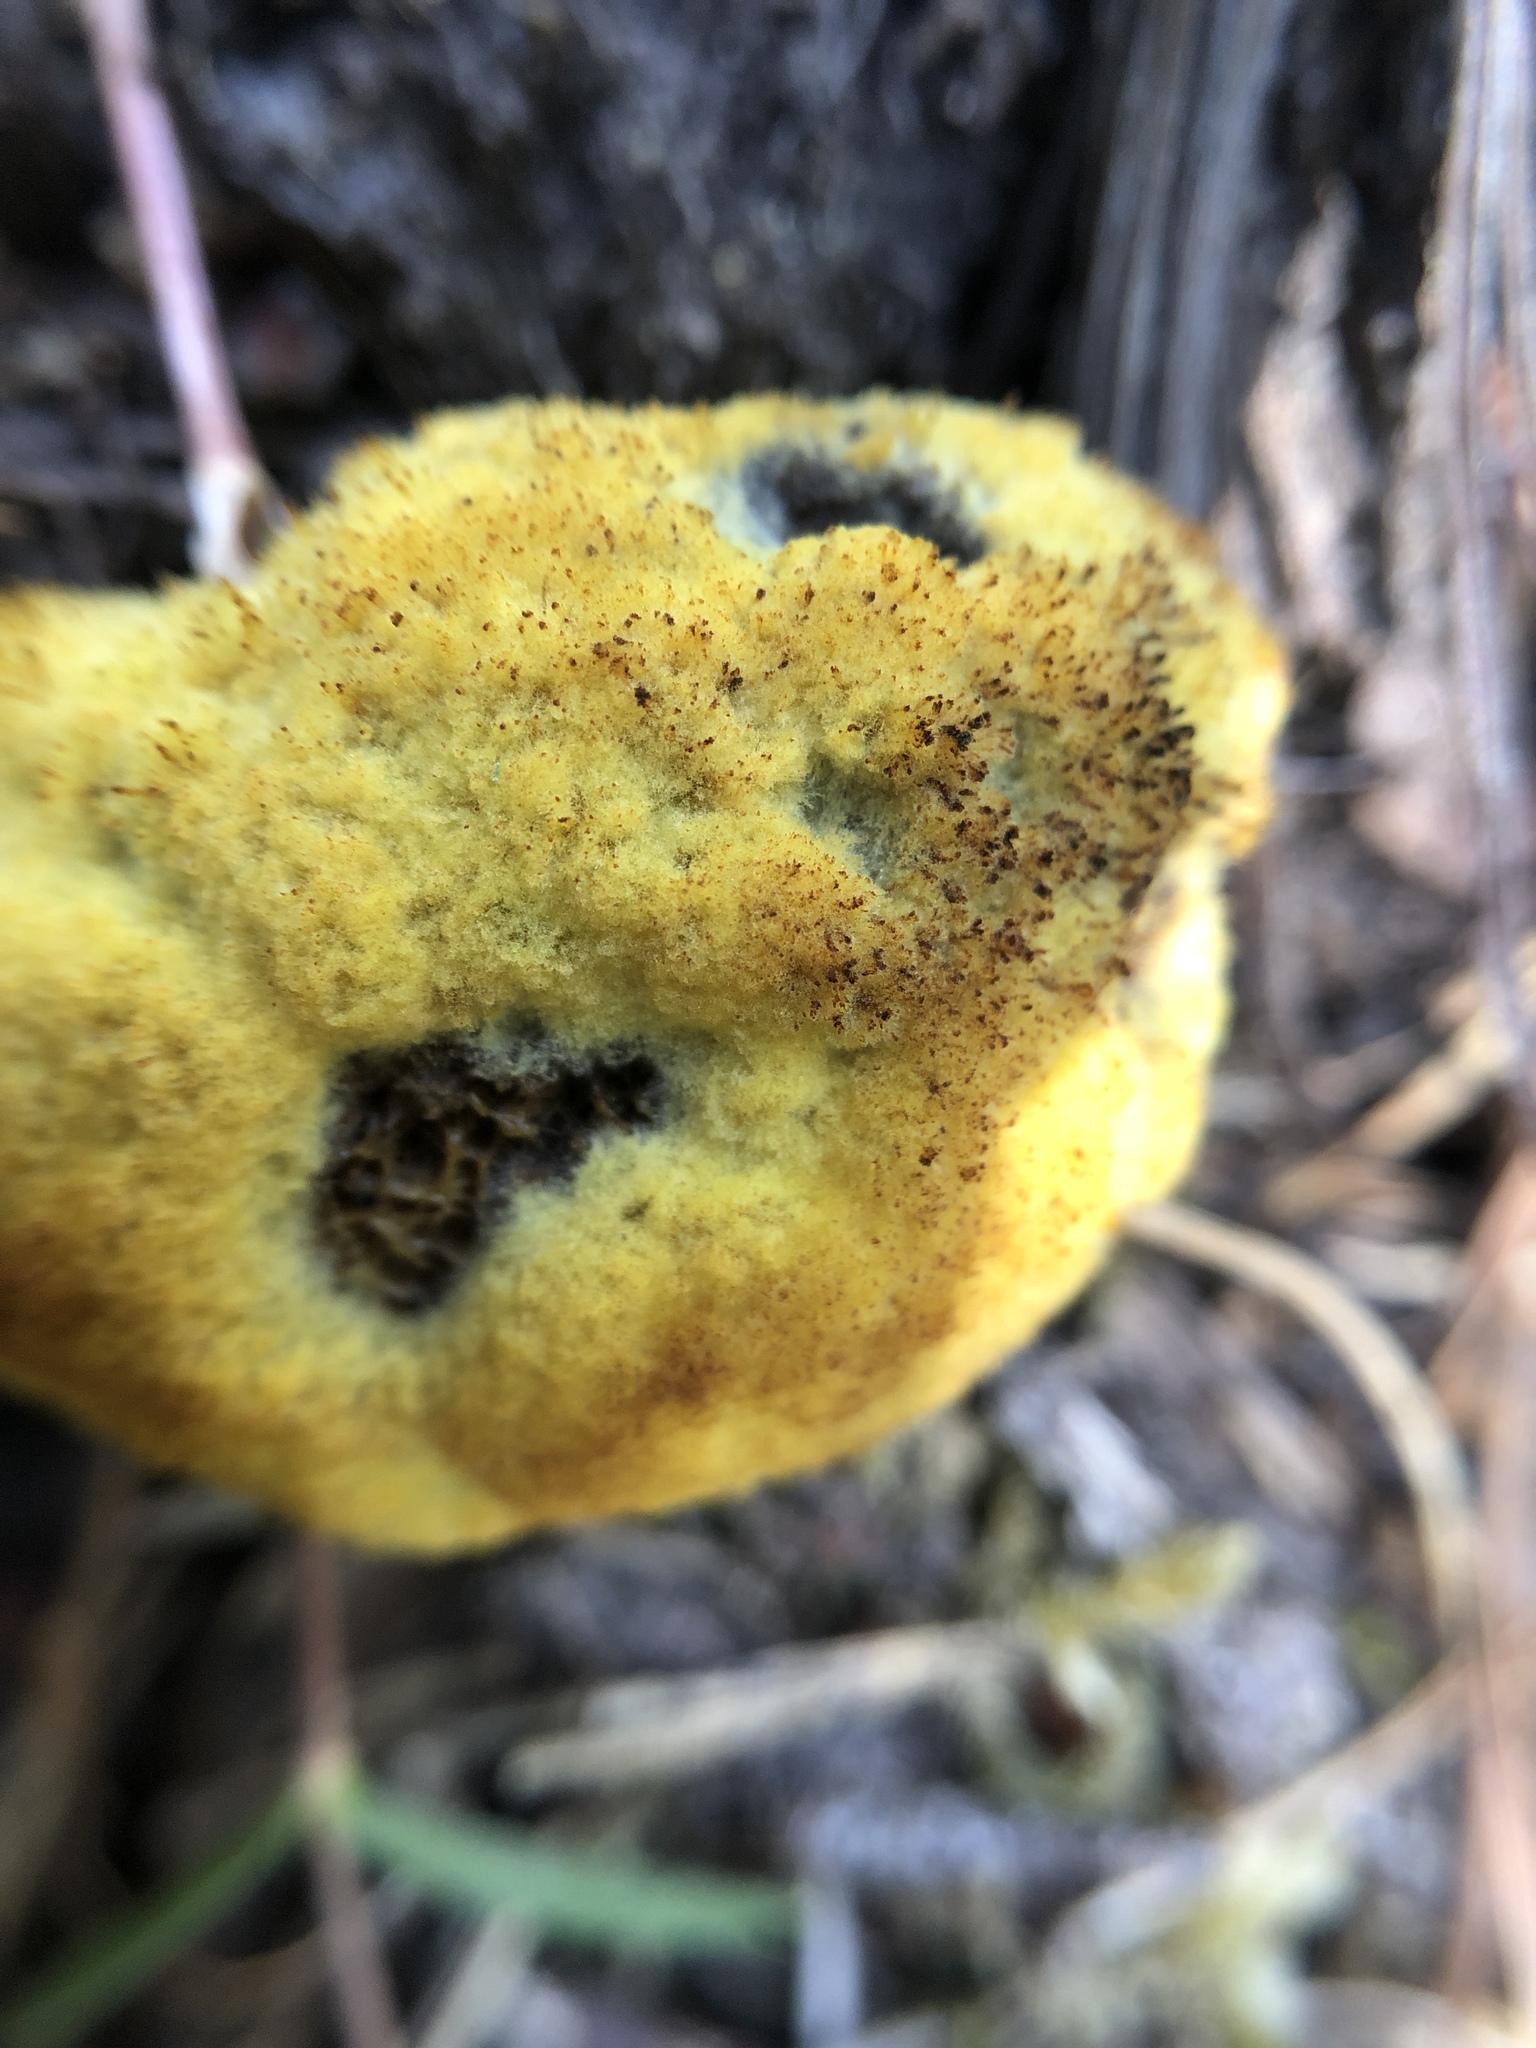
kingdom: Fungi
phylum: Basidiomycota
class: Agaricomycetes
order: Polyporales
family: Laetiporaceae
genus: Phaeolus
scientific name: Phaeolus schweinitzii
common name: Dyer's mazegill
